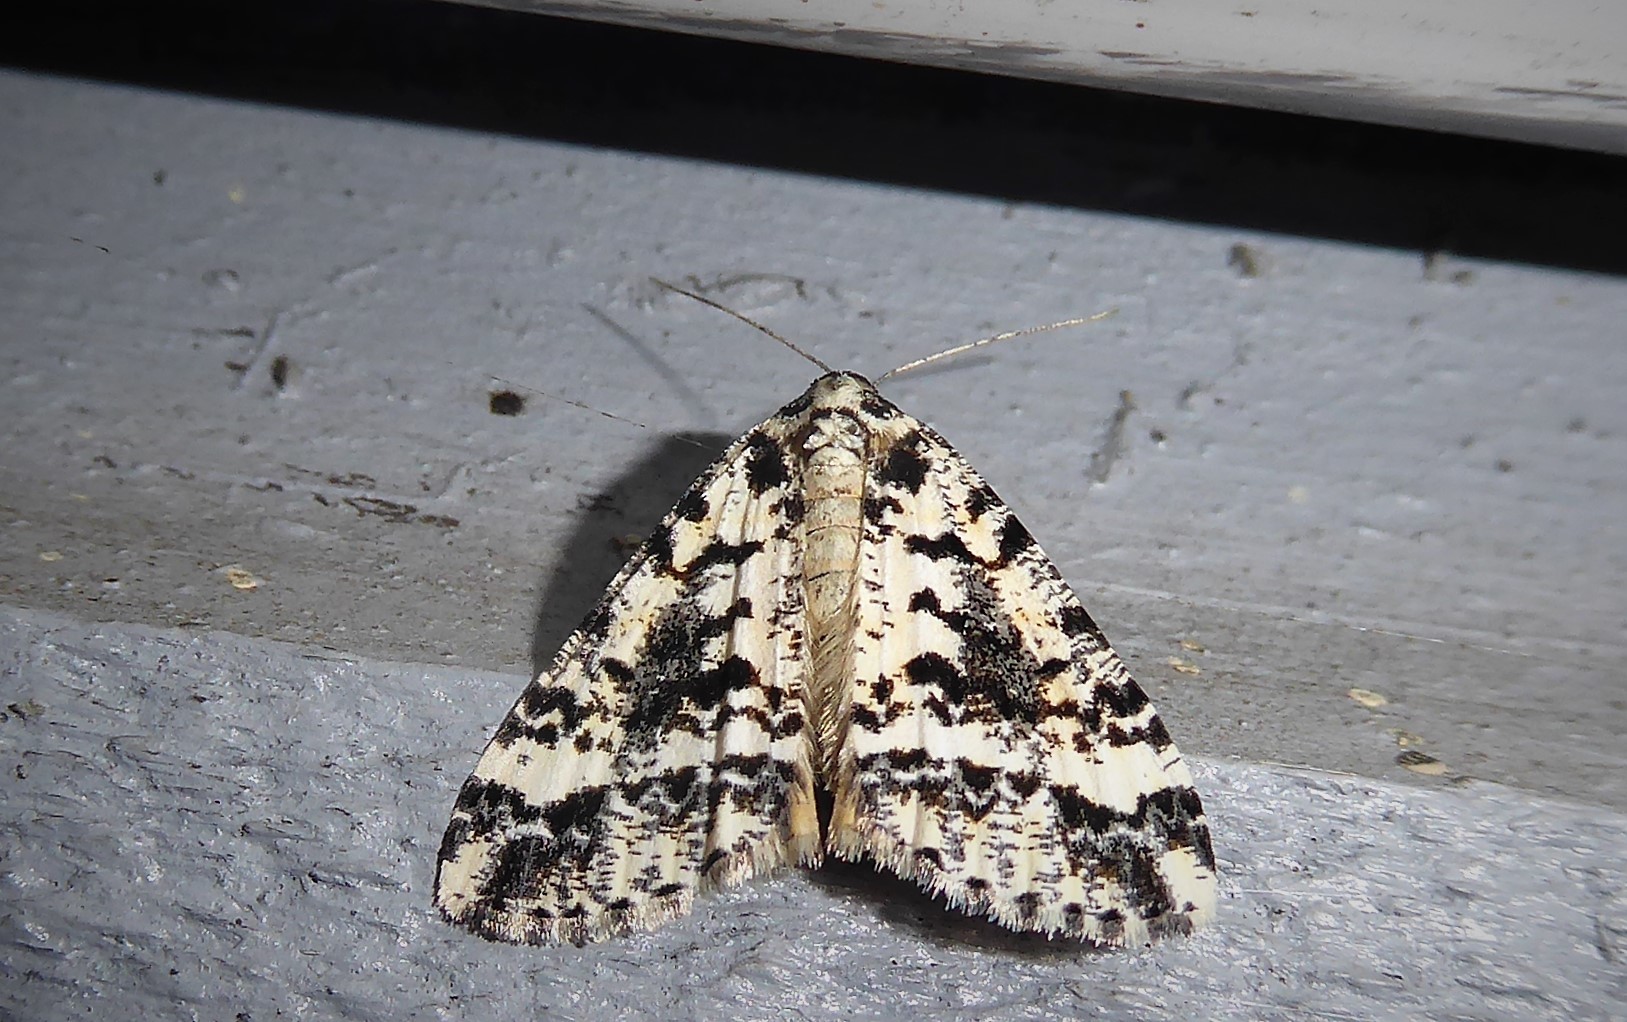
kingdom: Animalia
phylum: Arthropoda
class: Insecta
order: Lepidoptera
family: Geometridae
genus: Pseudocoremia
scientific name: Pseudocoremia leucelaea
